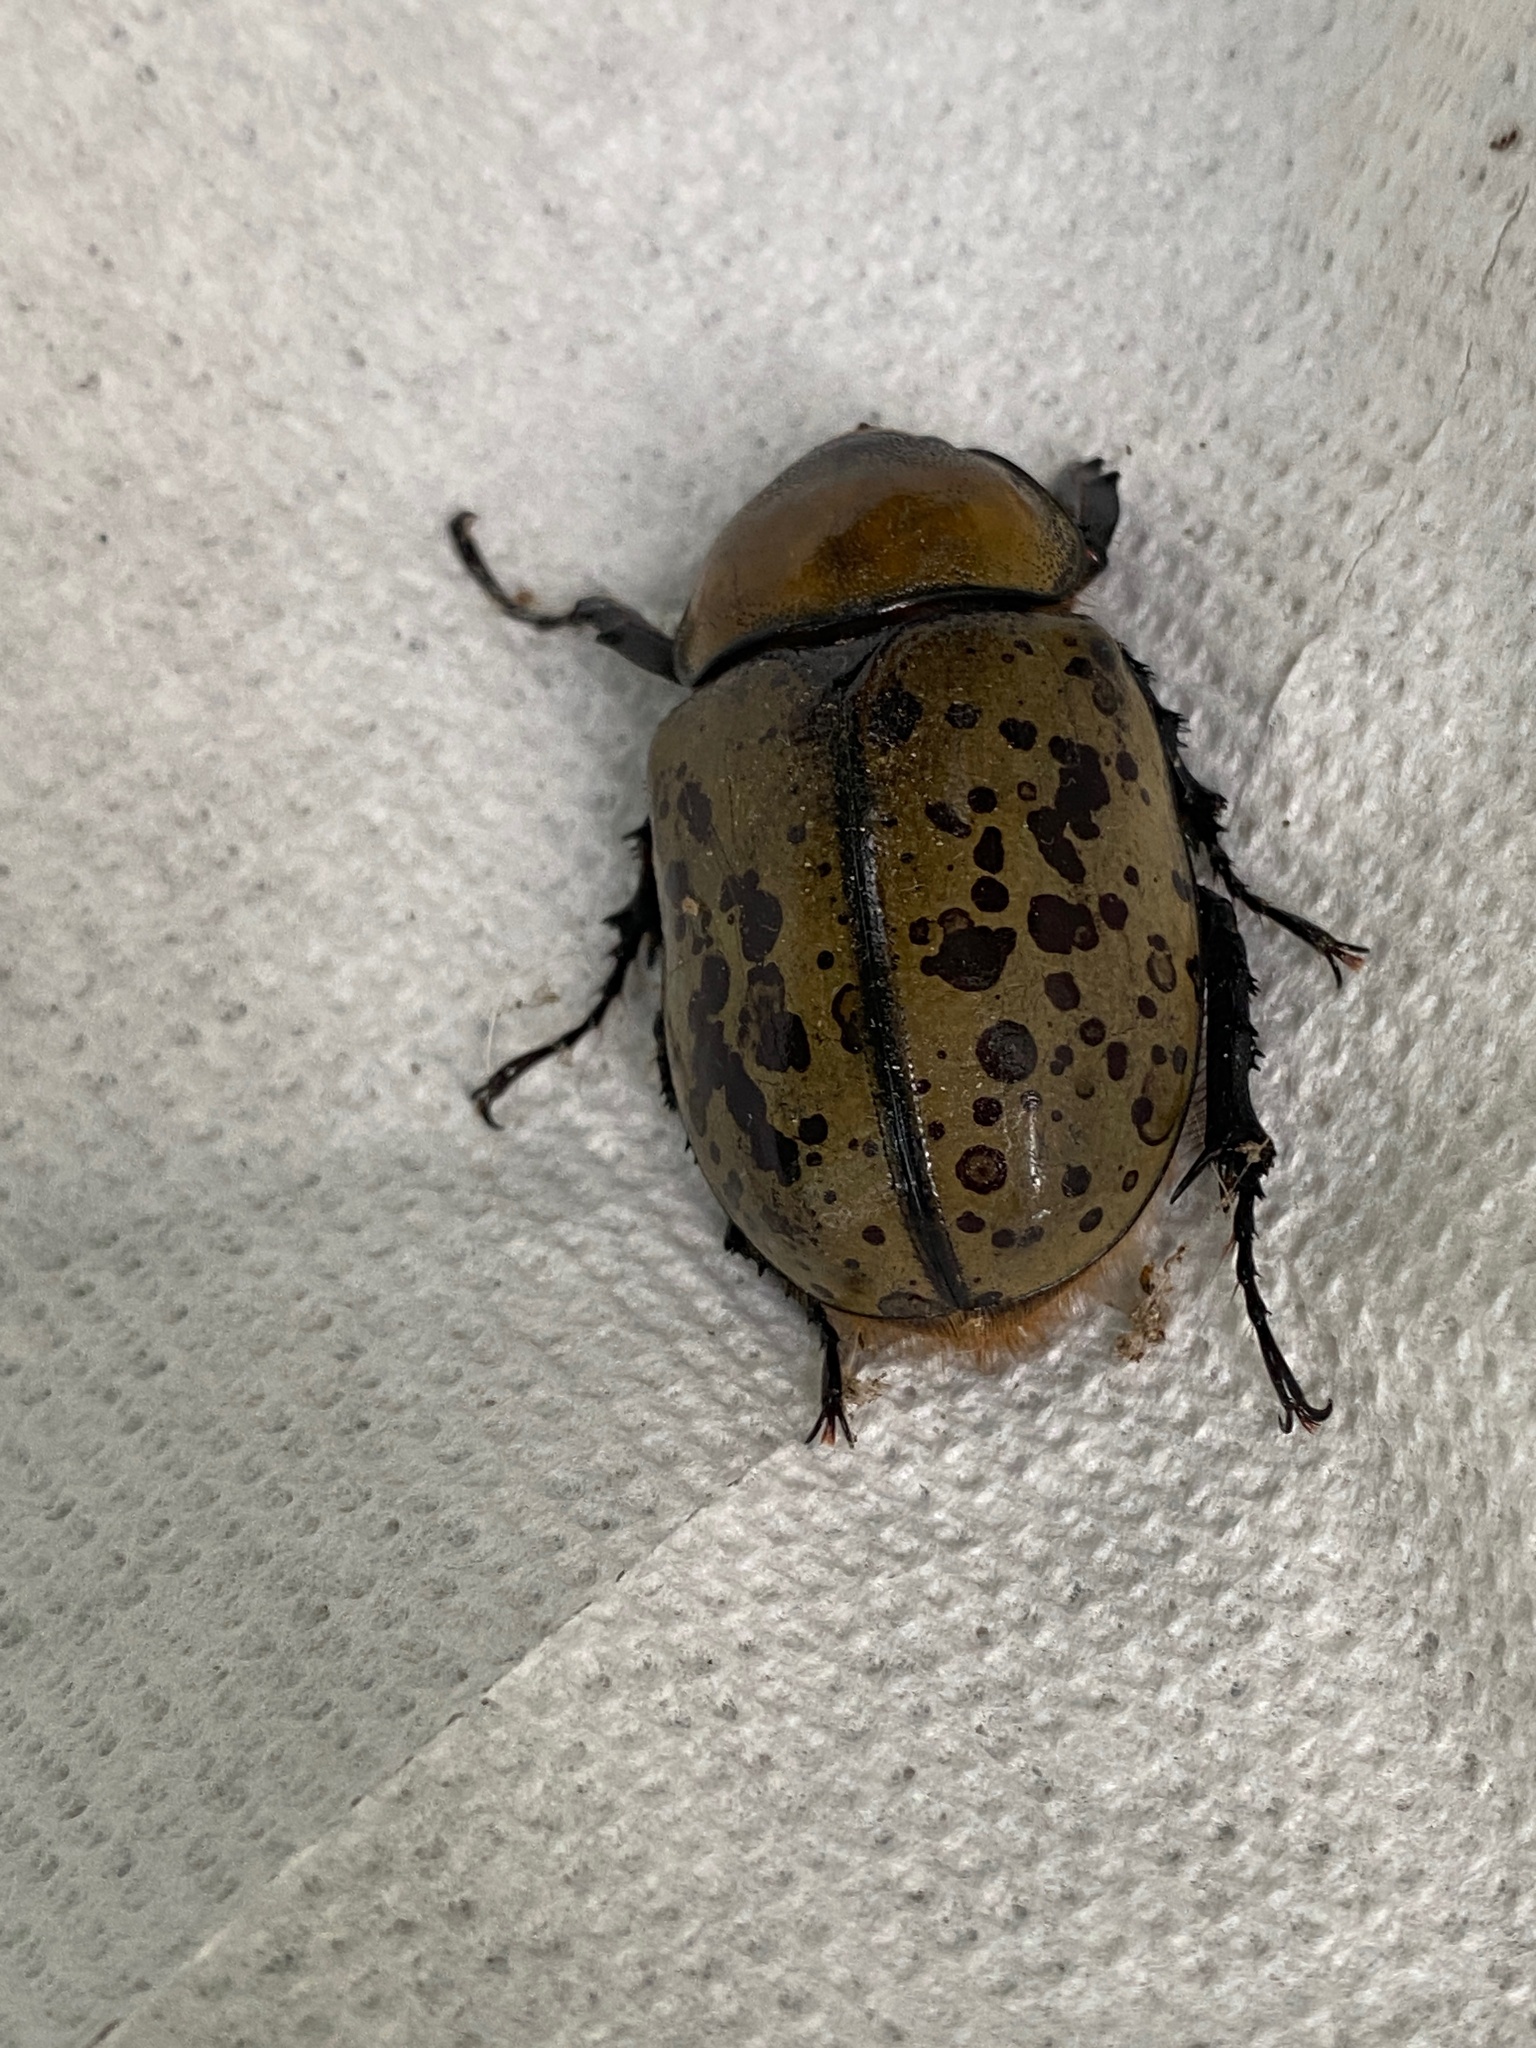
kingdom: Animalia
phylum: Arthropoda
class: Insecta
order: Coleoptera
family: Scarabaeidae
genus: Dynastes
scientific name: Dynastes tityus
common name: Eastern hercules beetle
